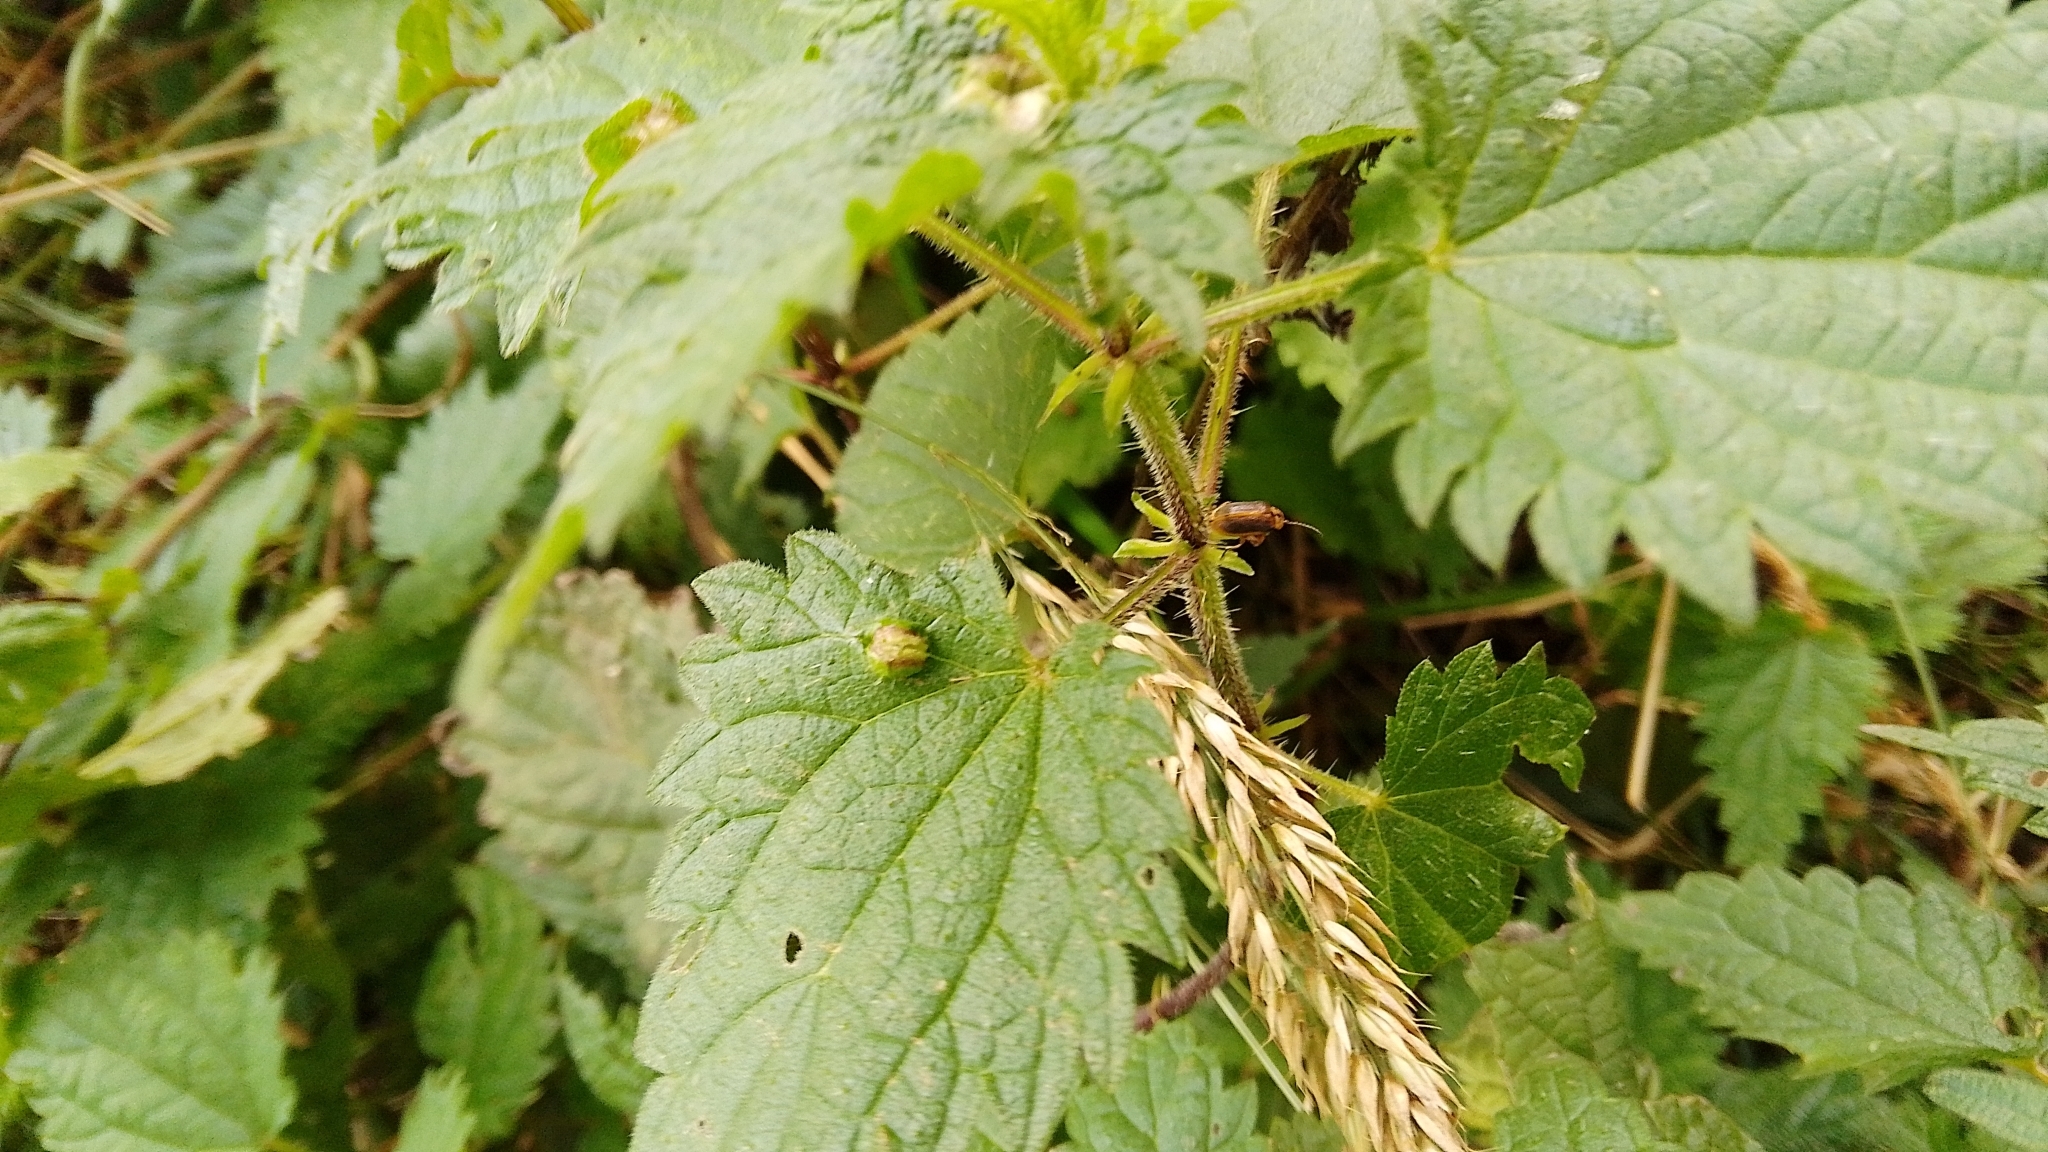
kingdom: Animalia
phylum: Arthropoda
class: Insecta
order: Diptera
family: Cecidomyiidae
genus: Dasineura
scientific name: Dasineura urticae
